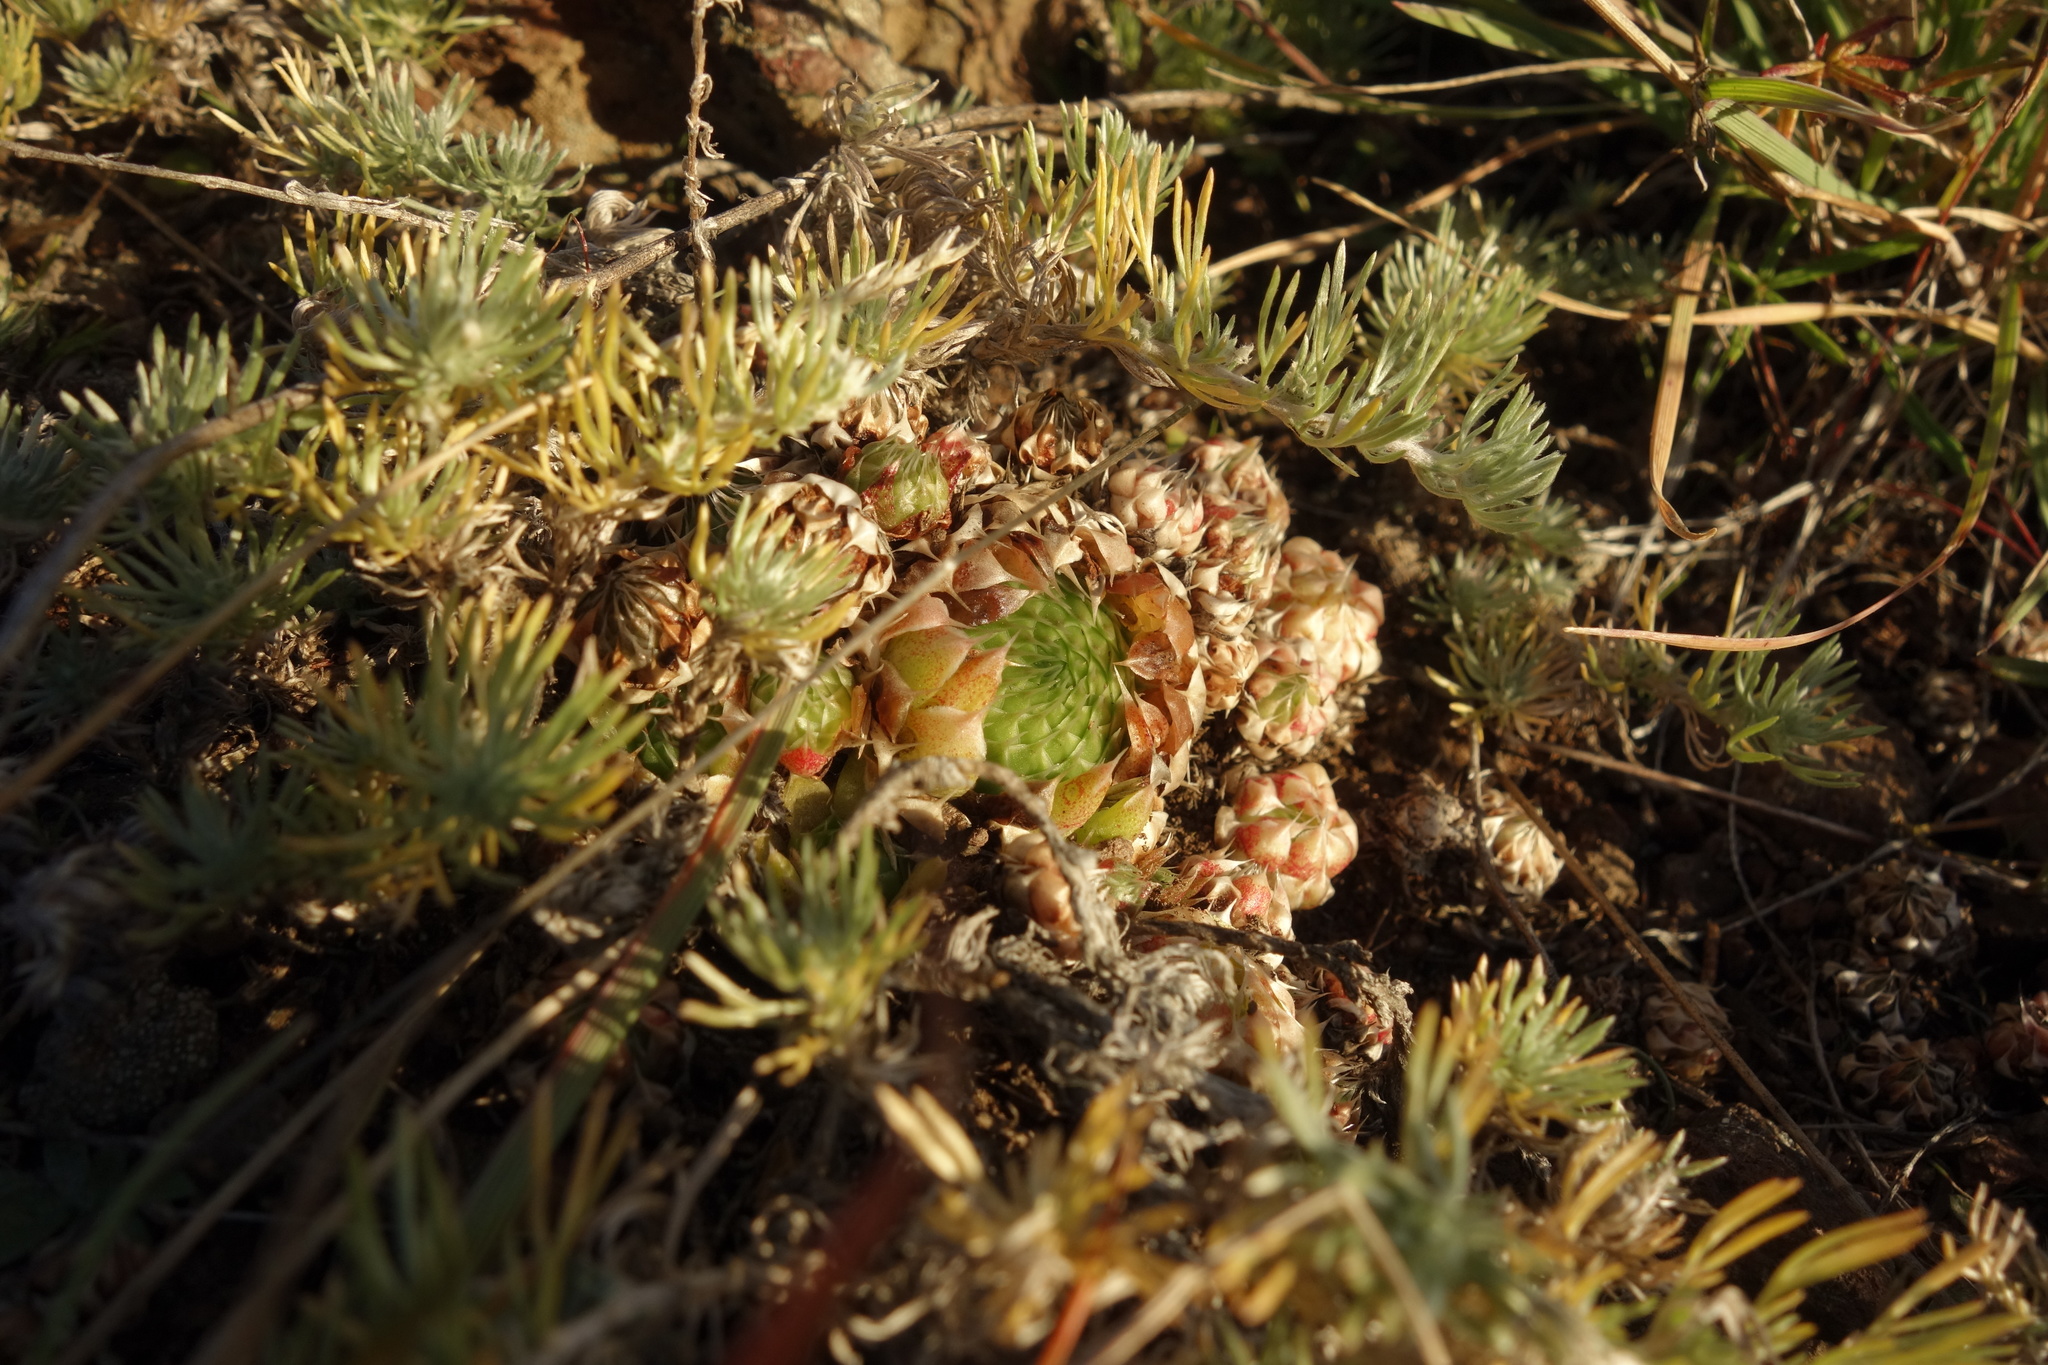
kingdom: Plantae
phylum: Tracheophyta
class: Magnoliopsida
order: Saxifragales
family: Crassulaceae
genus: Orostachys
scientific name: Orostachys spinosa
